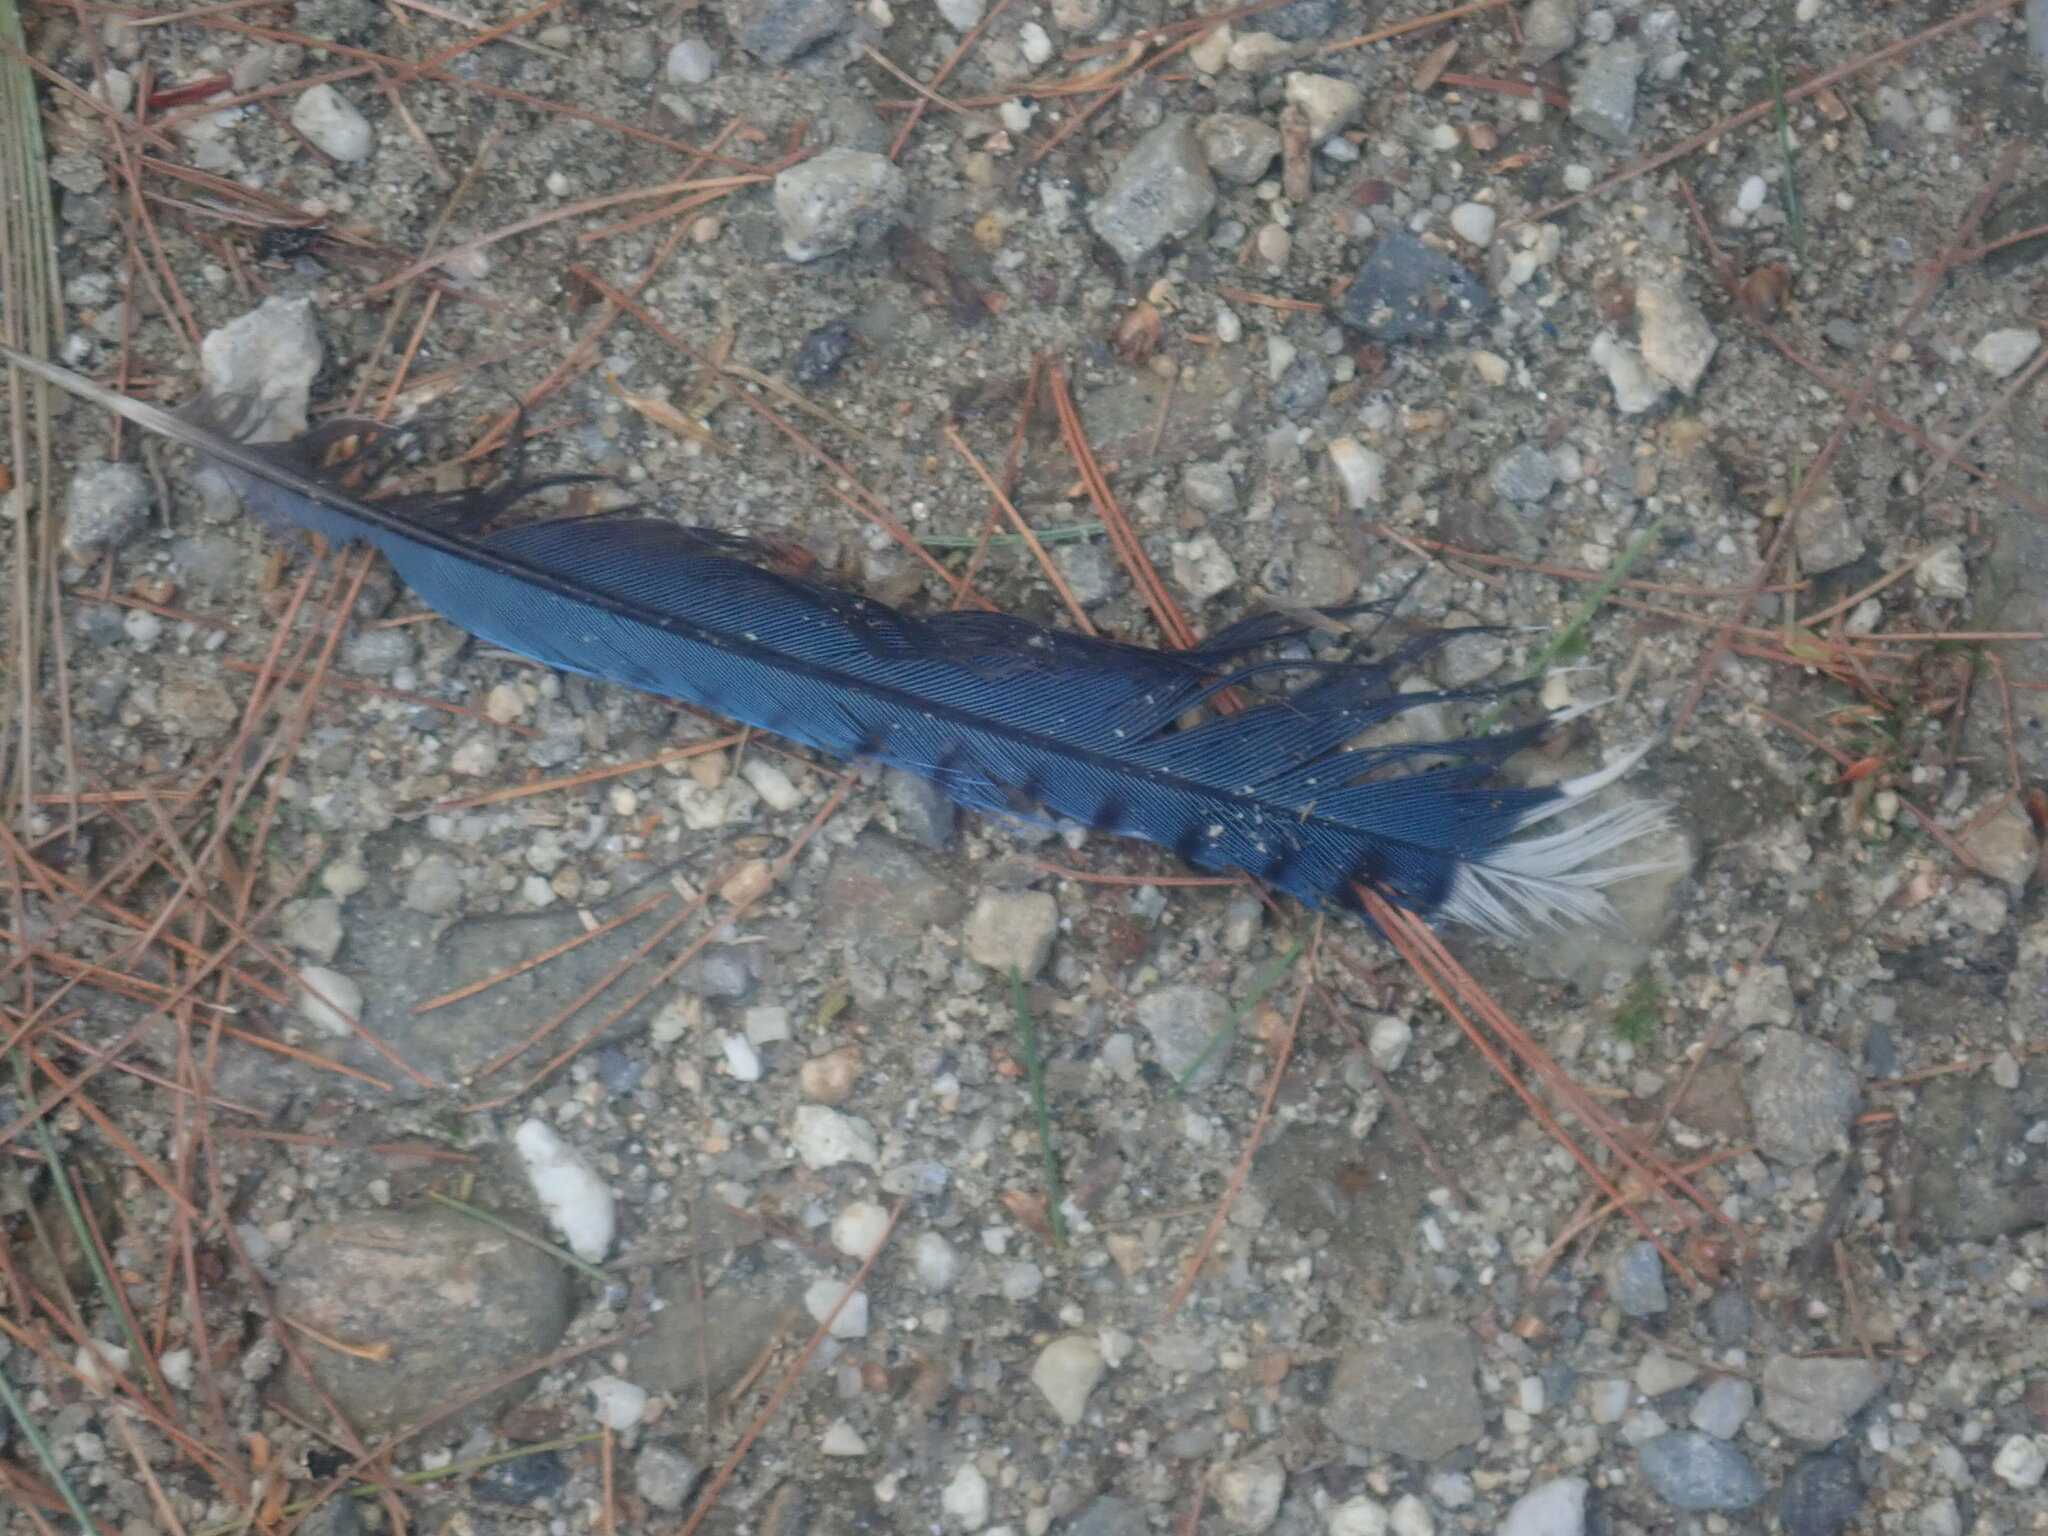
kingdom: Animalia
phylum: Chordata
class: Aves
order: Passeriformes
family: Corvidae
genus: Cyanocitta
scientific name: Cyanocitta cristata
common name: Blue jay
